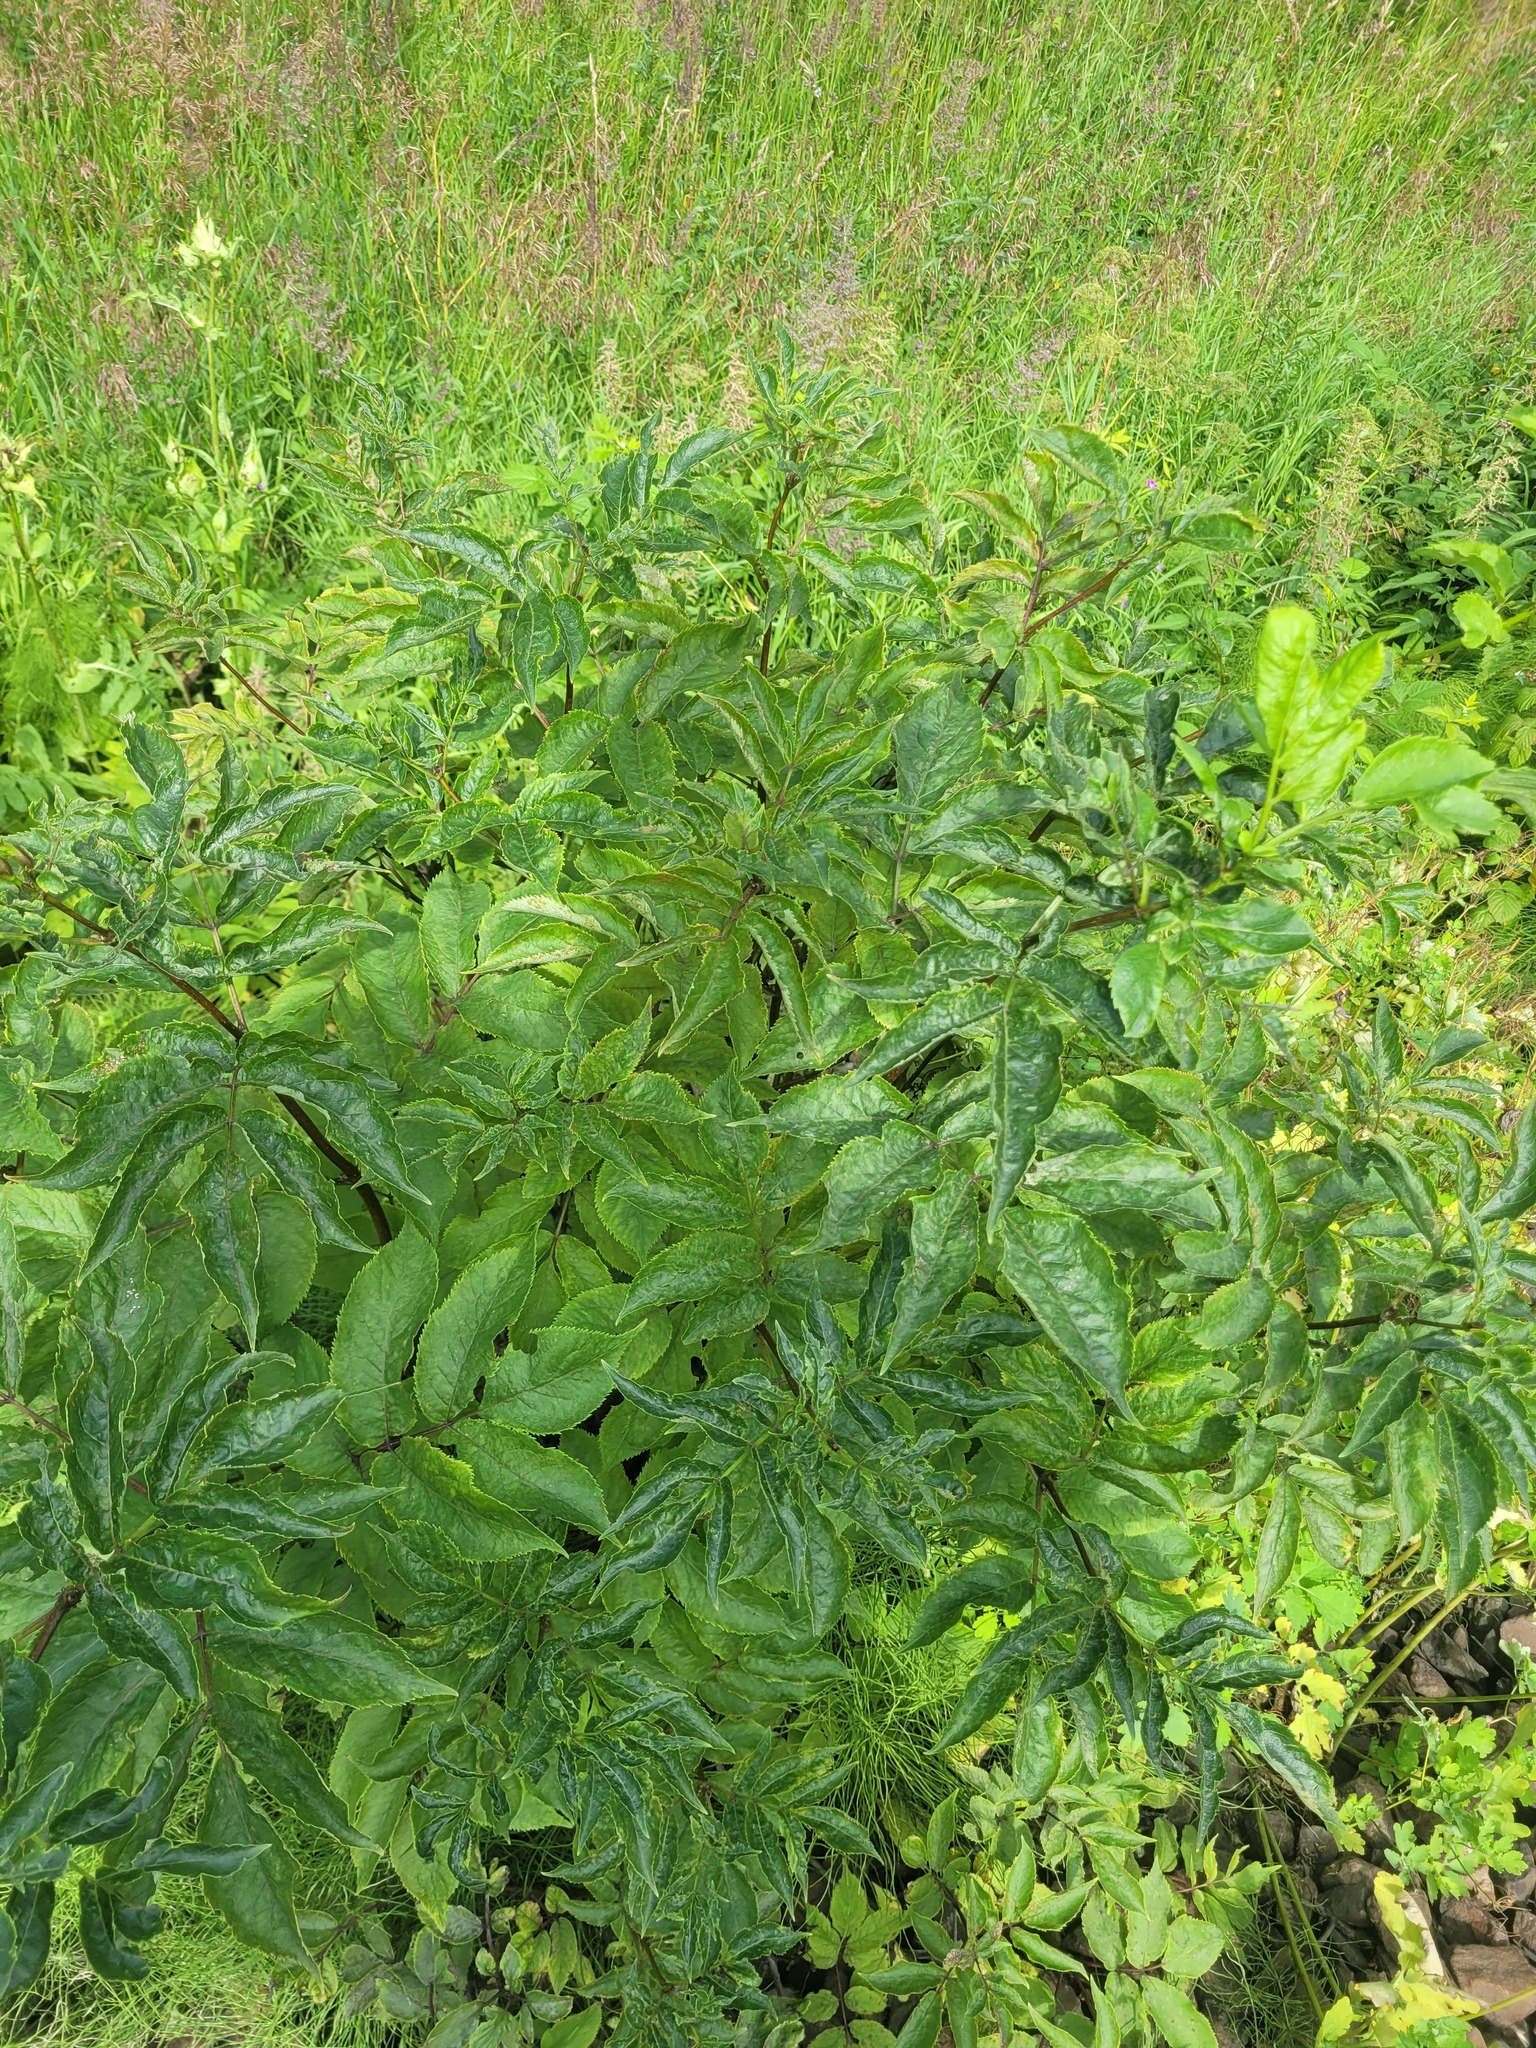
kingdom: Plantae
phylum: Tracheophyta
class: Magnoliopsida
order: Dipsacales
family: Viburnaceae
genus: Sambucus
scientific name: Sambucus racemosa
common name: Red-berried elder
